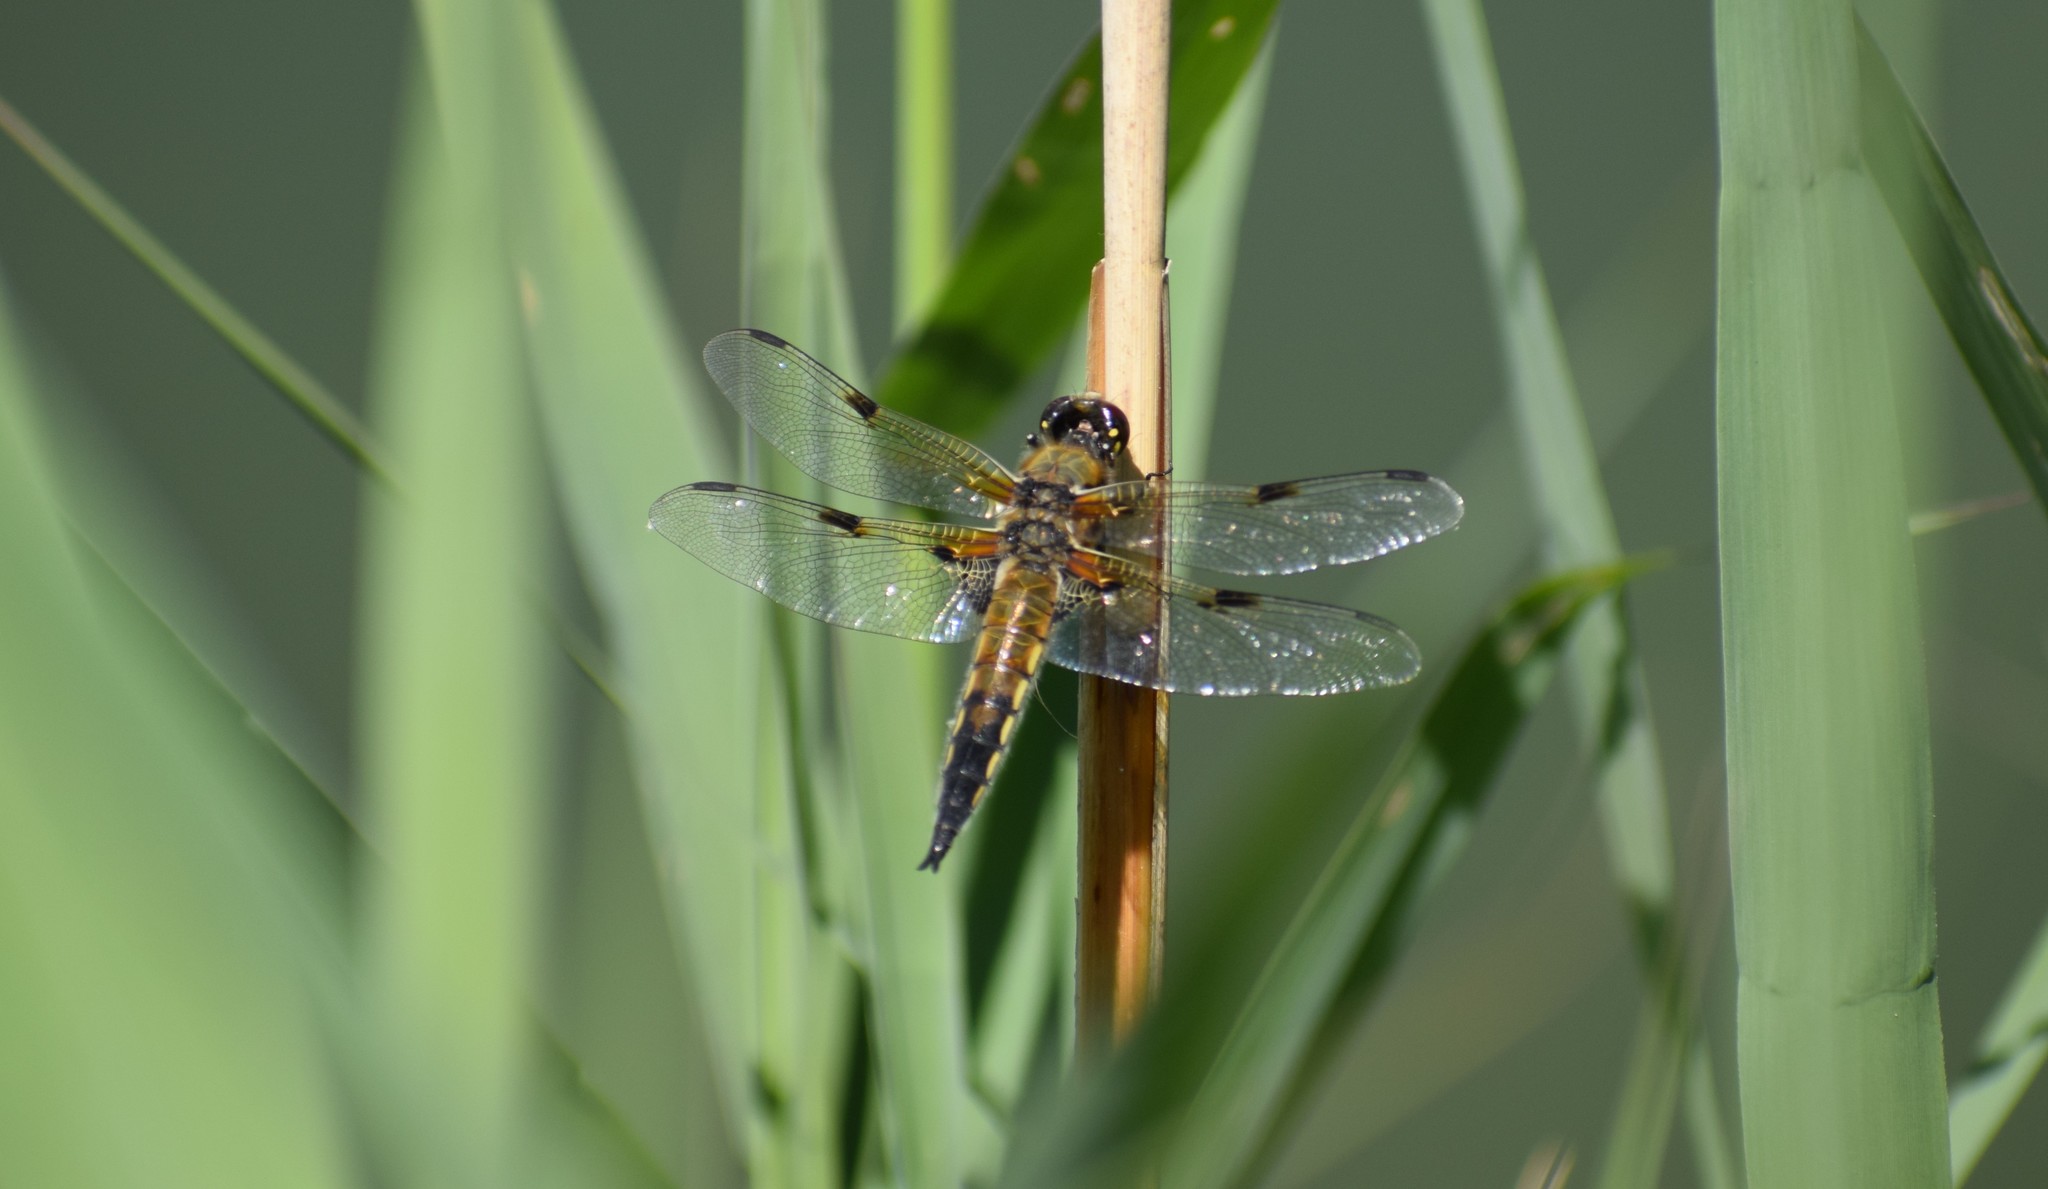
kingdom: Animalia
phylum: Arthropoda
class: Insecta
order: Odonata
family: Libellulidae
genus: Libellula
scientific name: Libellula quadrimaculata
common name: Four-spotted chaser
